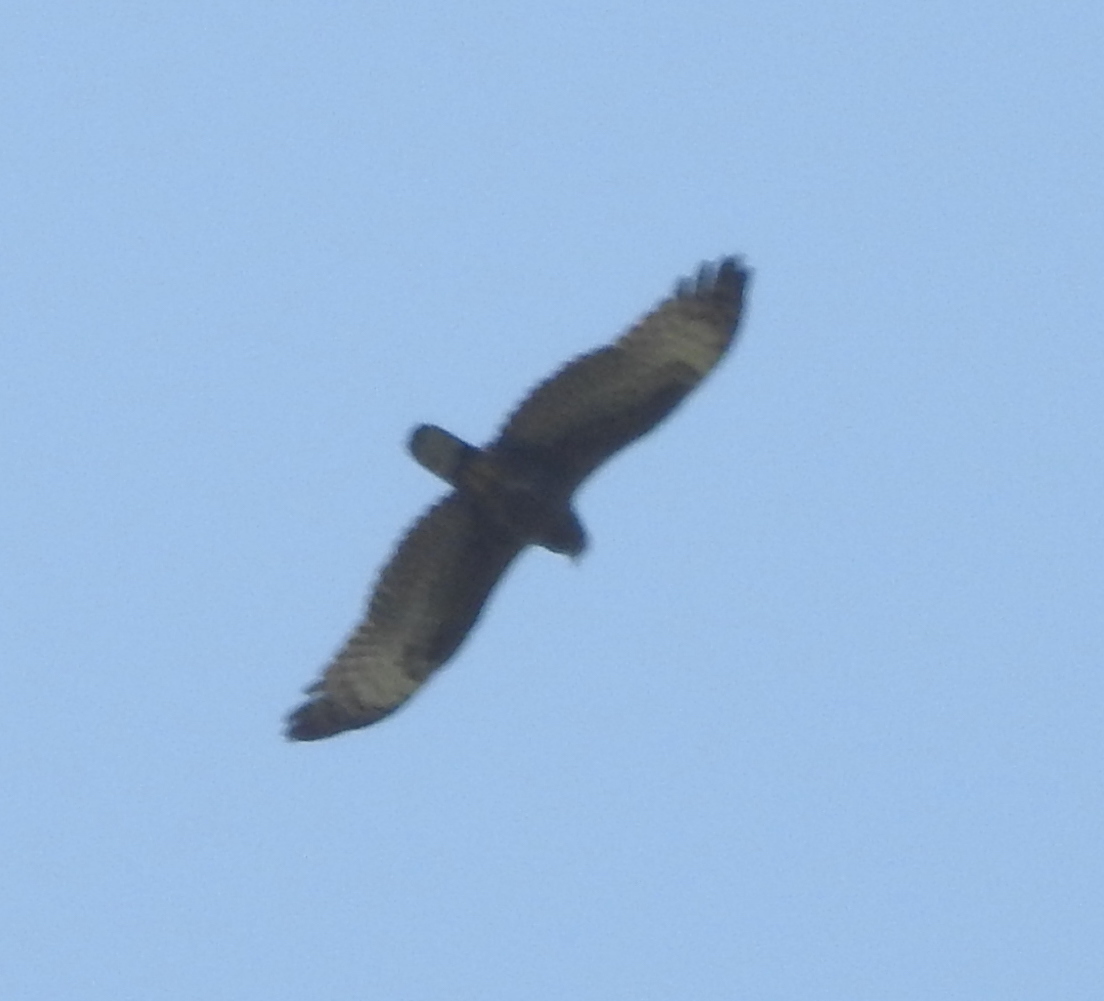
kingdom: Animalia
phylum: Chordata
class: Aves
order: Accipitriformes
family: Accipitridae
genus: Pernis
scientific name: Pernis ptilorhynchus
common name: Crested honey buzzard
